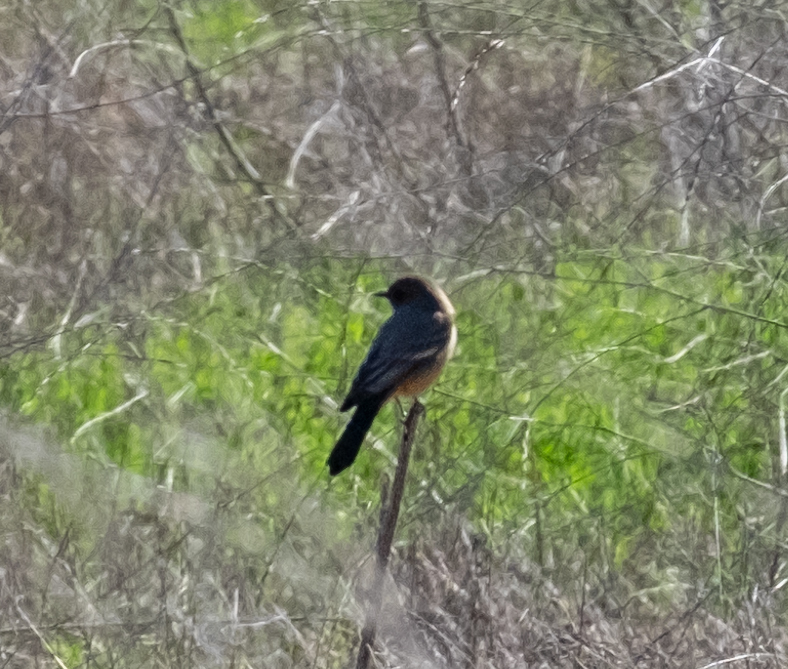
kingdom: Animalia
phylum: Chordata
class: Aves
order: Passeriformes
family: Tyrannidae
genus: Sayornis
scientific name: Sayornis saya
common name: Say's phoebe
